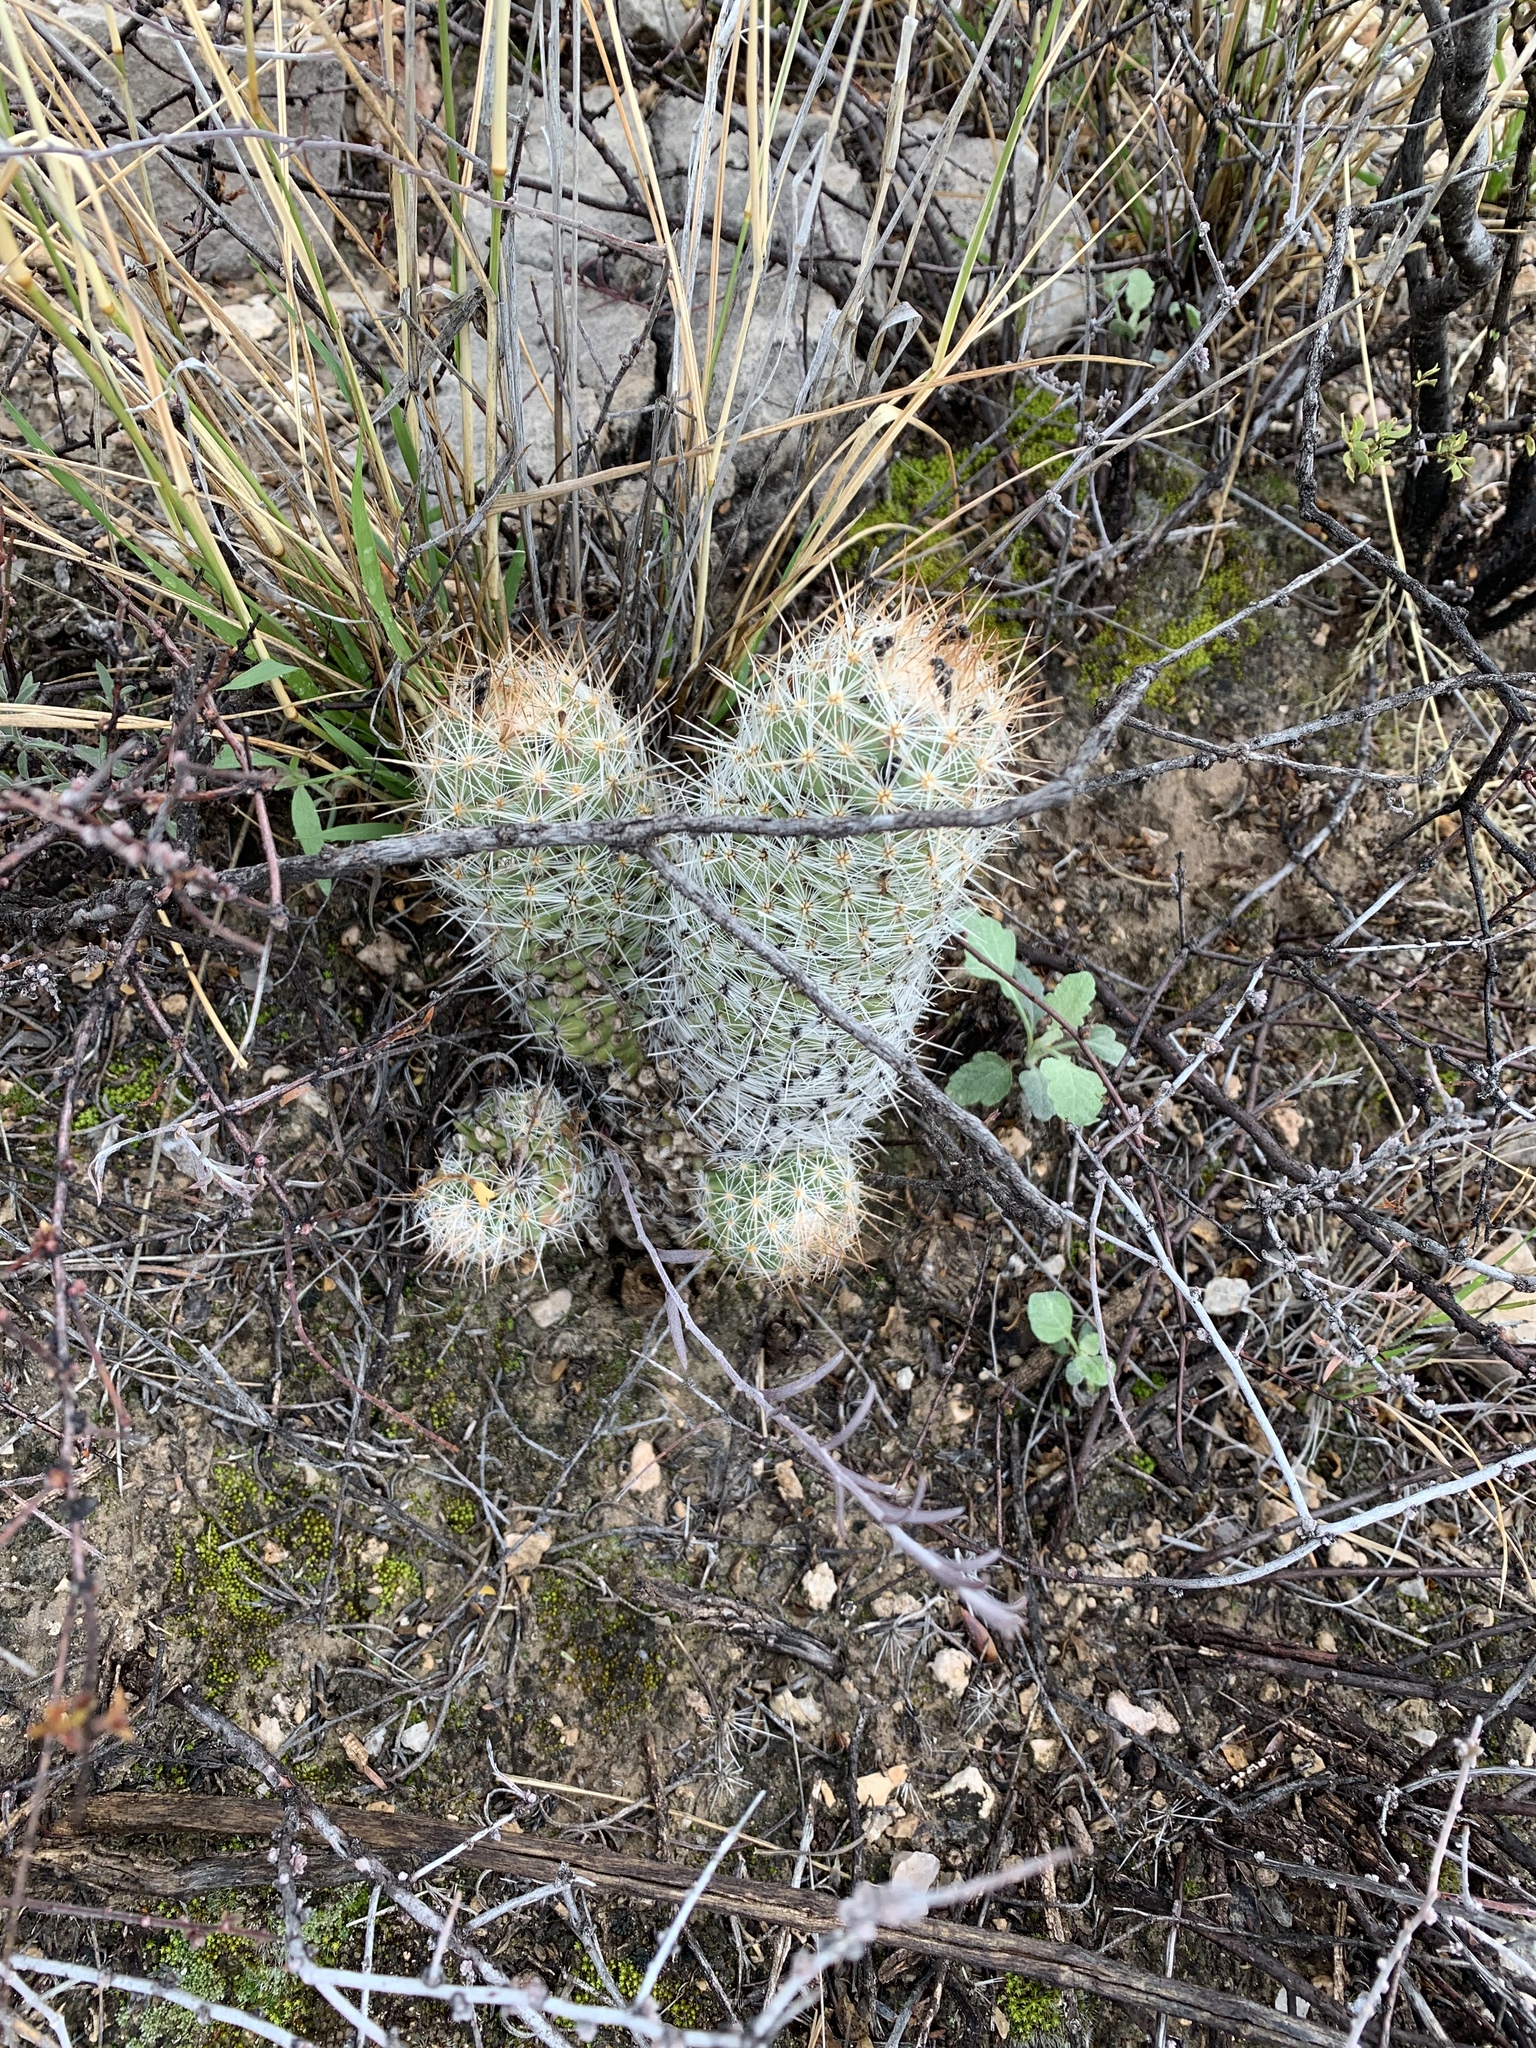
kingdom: Plantae
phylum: Tracheophyta
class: Magnoliopsida
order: Caryophyllales
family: Cactaceae
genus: Pelecyphora
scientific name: Pelecyphora tuberculosa
